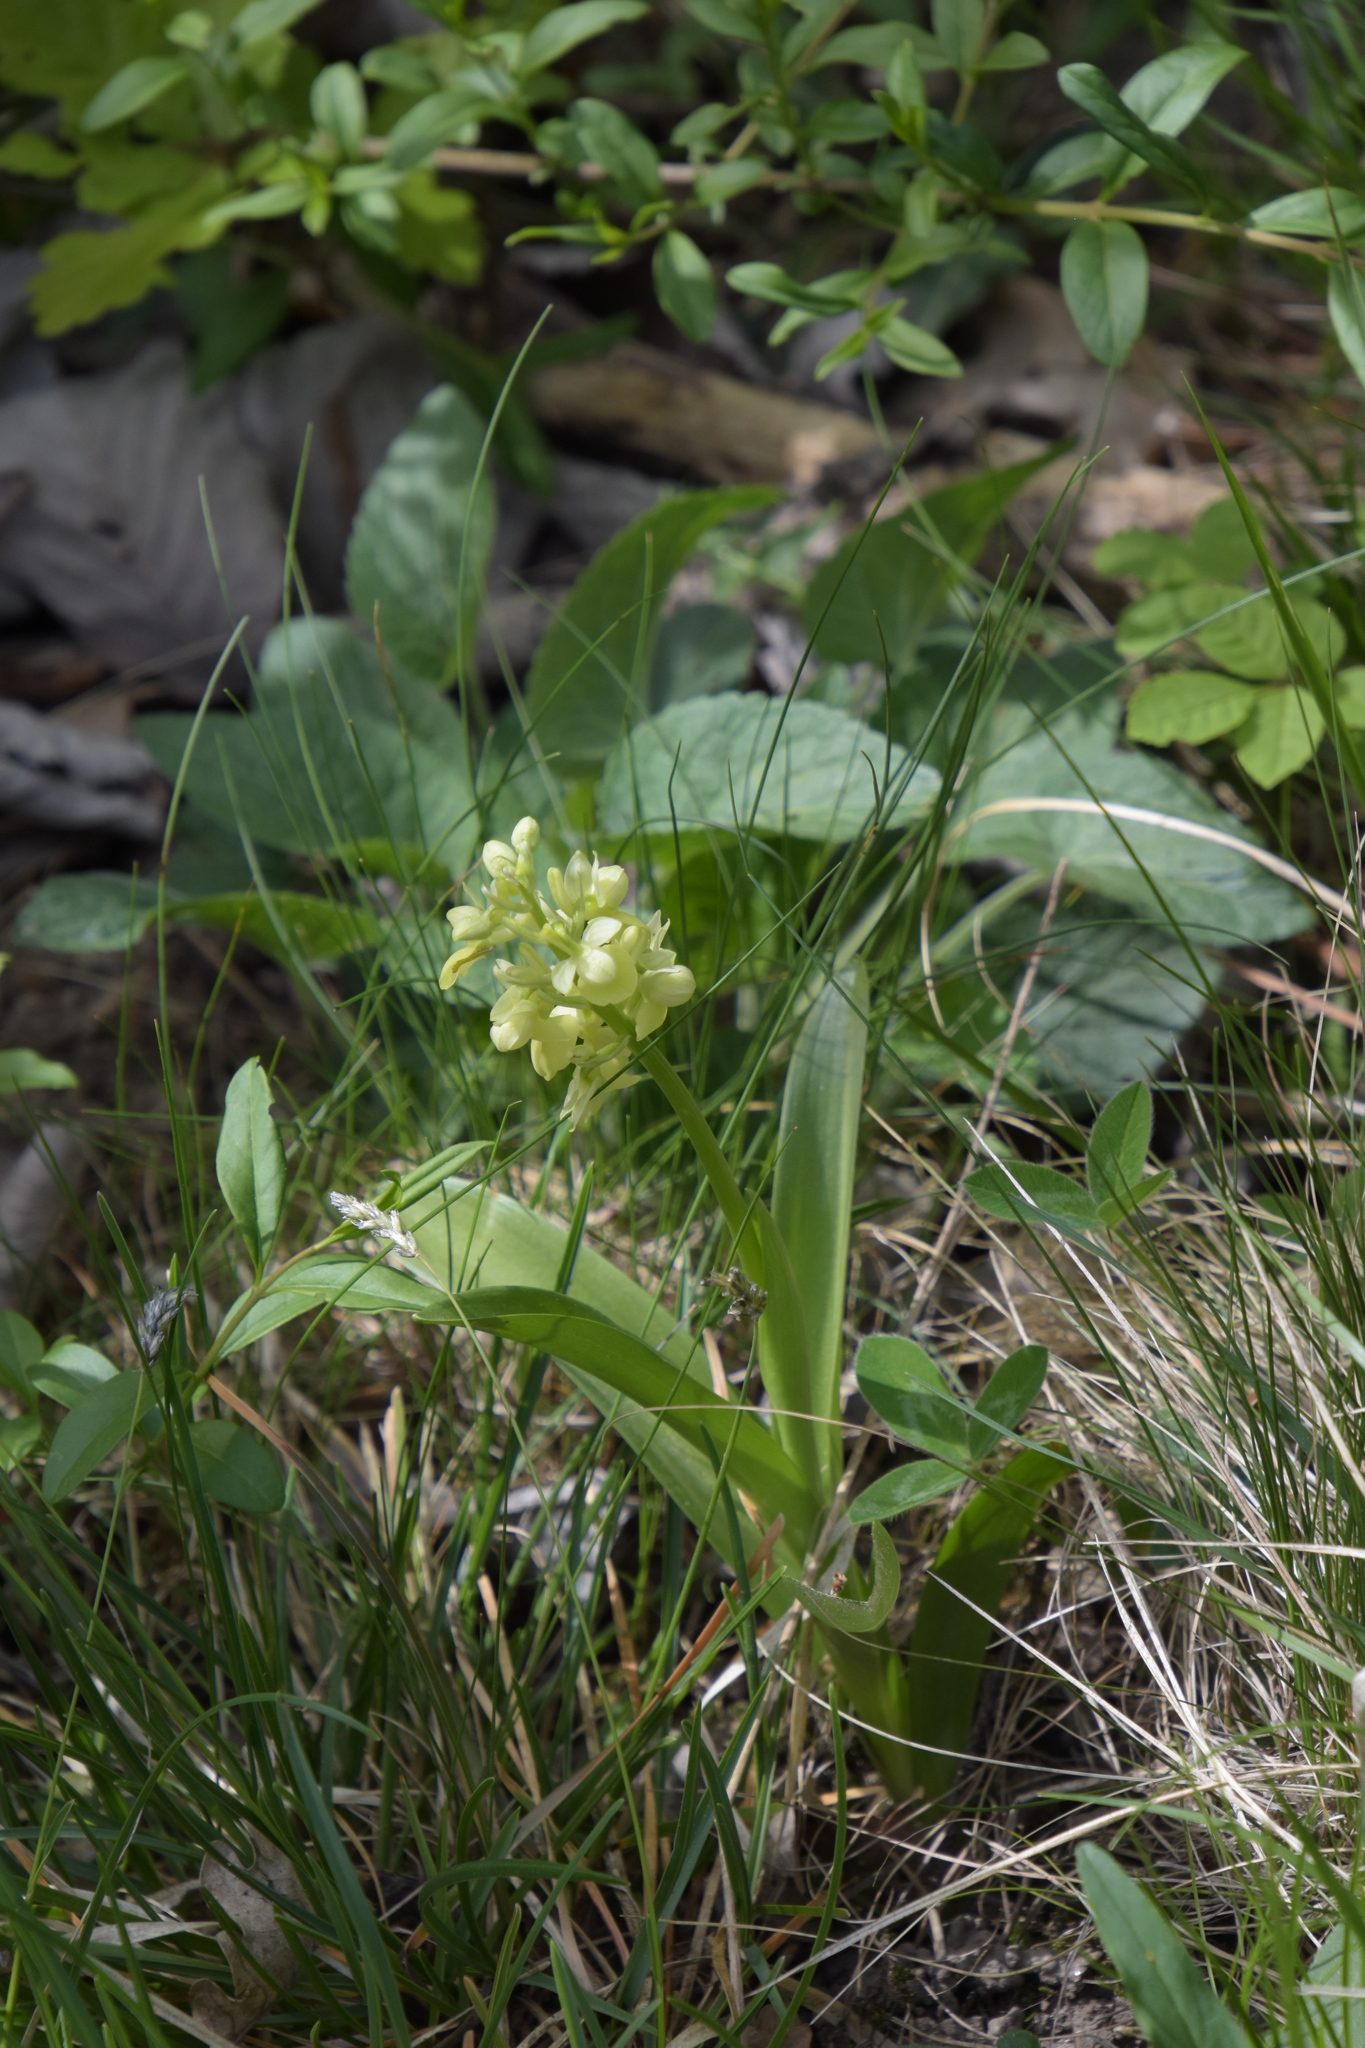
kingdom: Plantae
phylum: Tracheophyta
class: Liliopsida
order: Asparagales
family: Orchidaceae
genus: Orchis
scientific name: Orchis pallens
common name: Pale-flowered orchid
